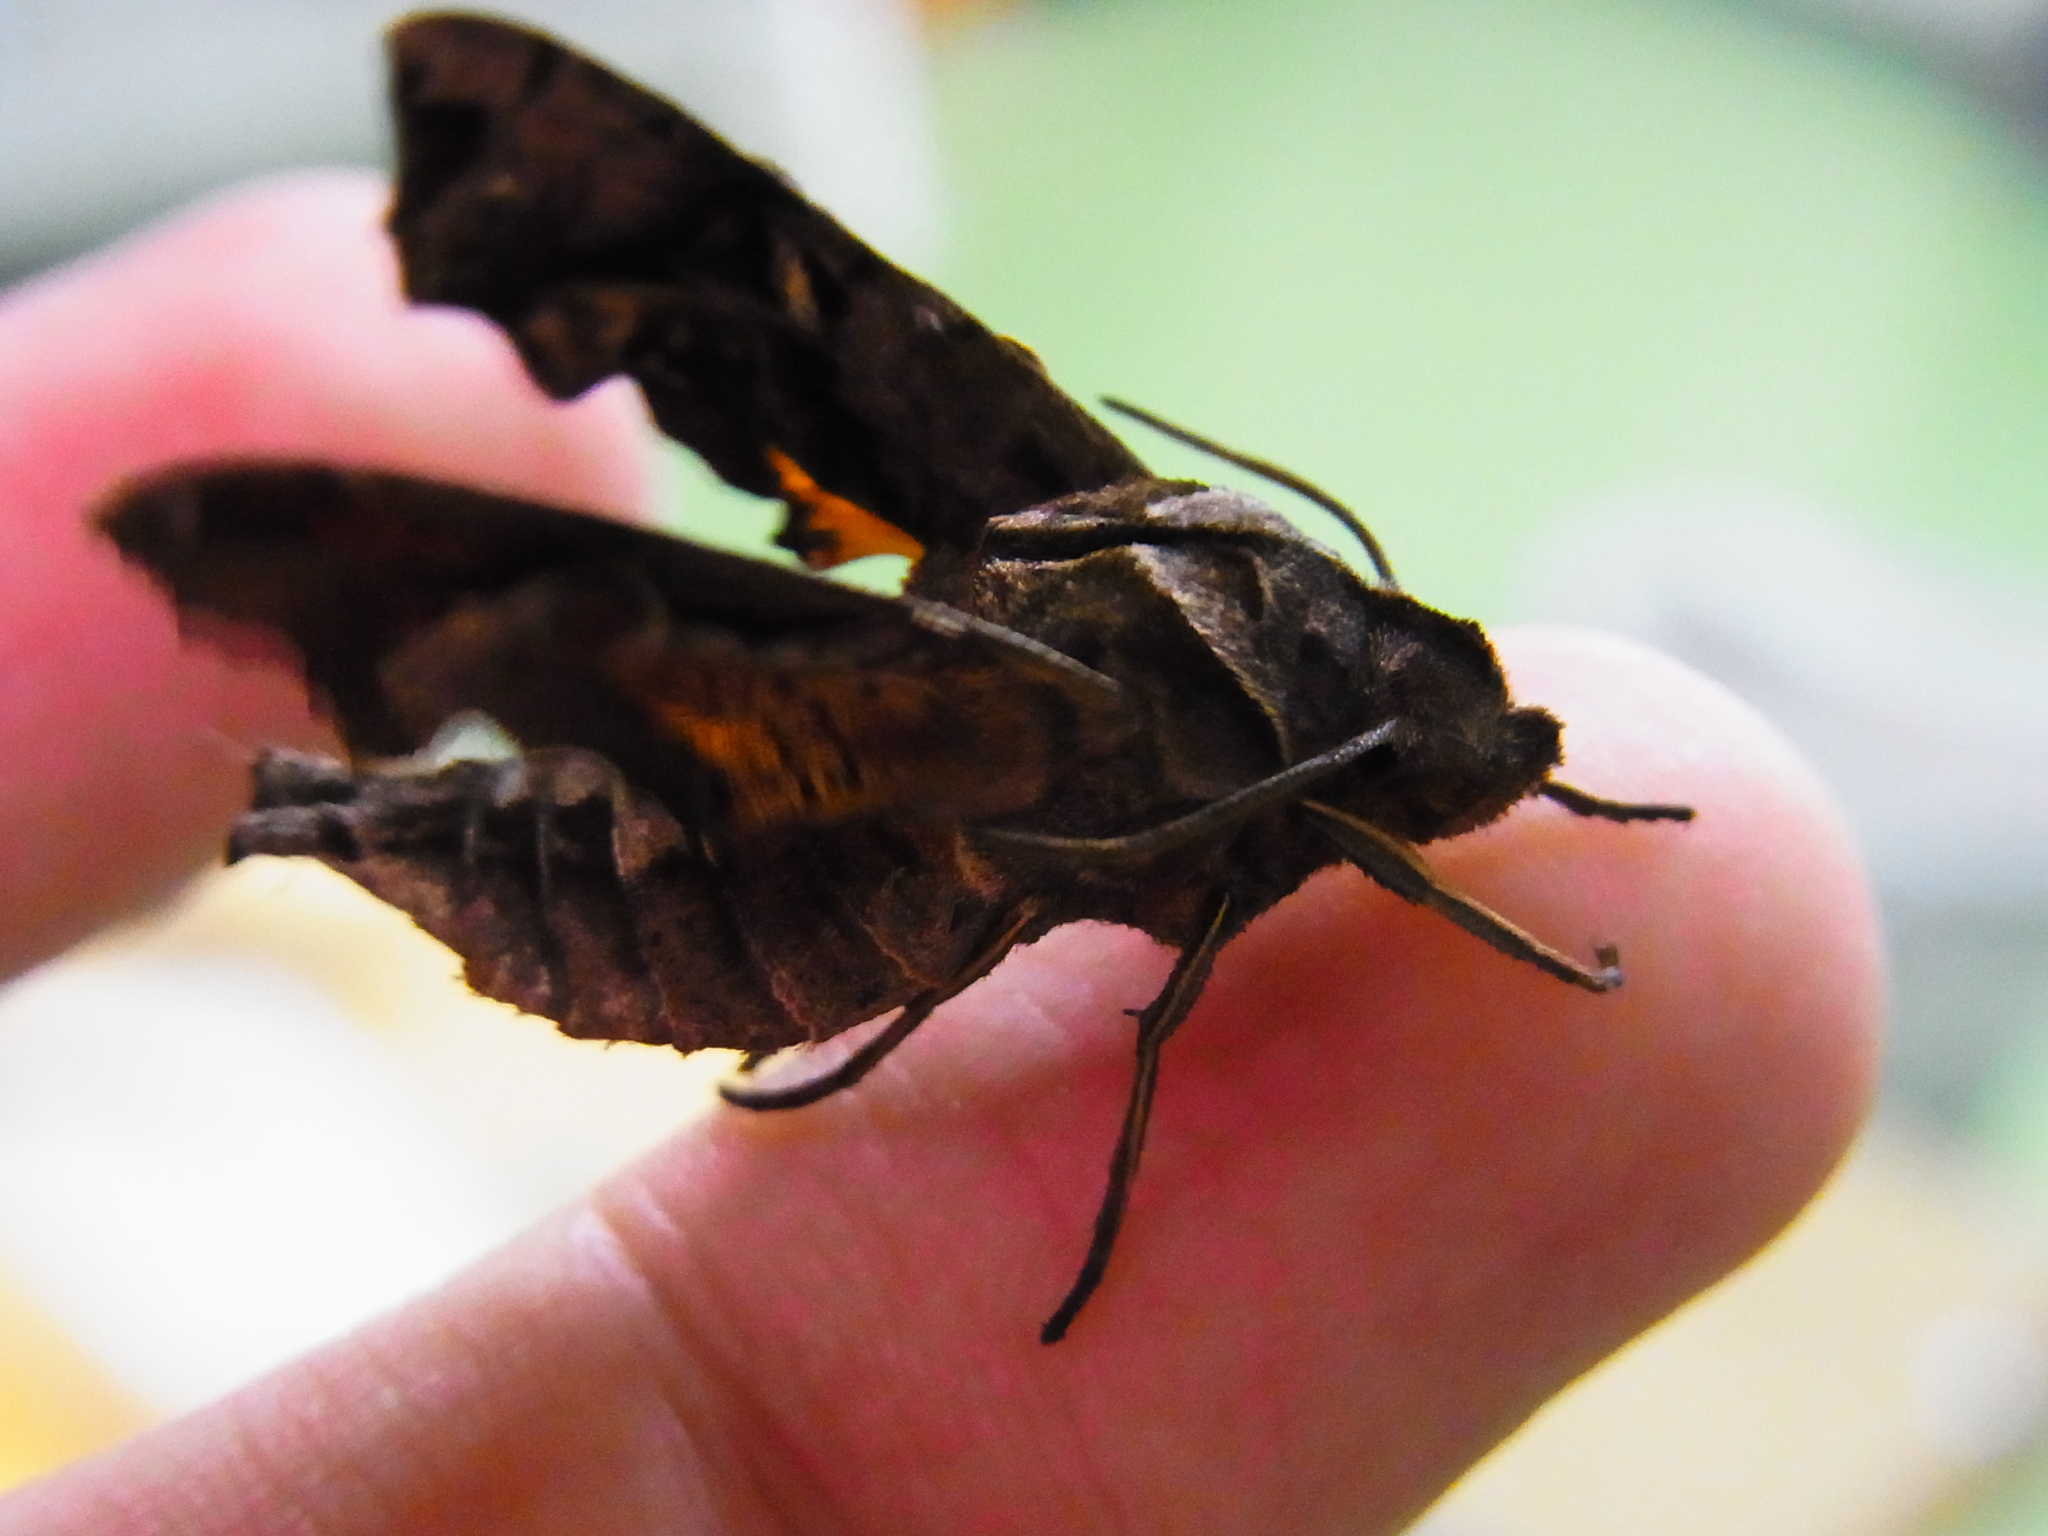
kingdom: Animalia
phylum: Arthropoda
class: Insecta
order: Lepidoptera
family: Sphingidae
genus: Neogurelca
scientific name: Neogurelca himachala
